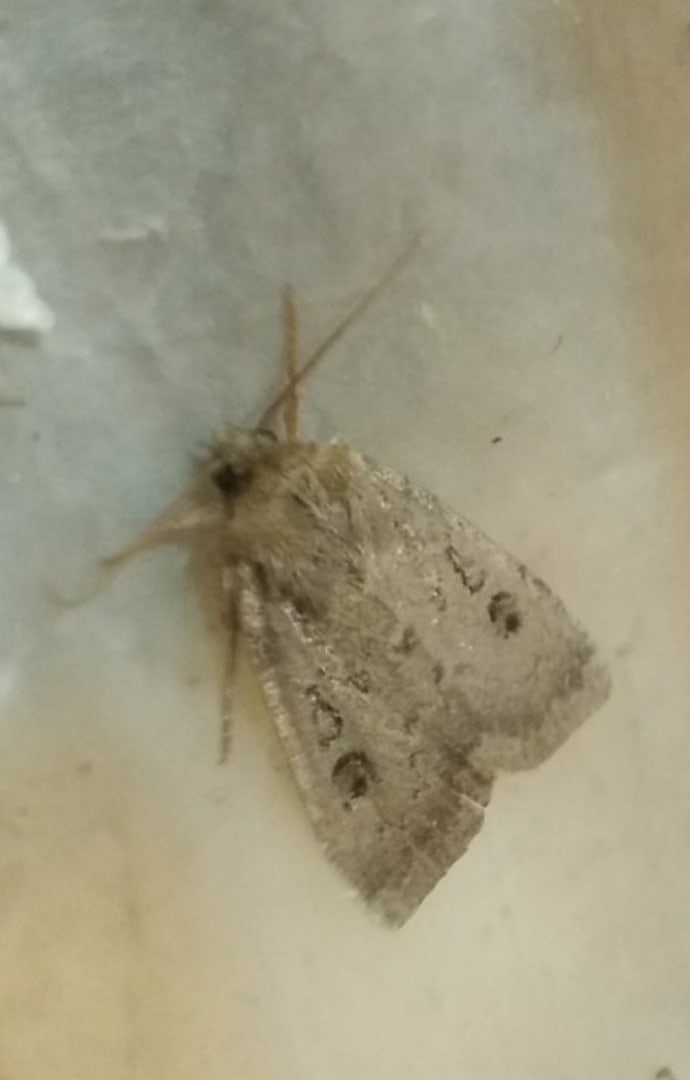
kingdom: Animalia
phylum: Arthropoda
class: Insecta
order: Lepidoptera
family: Noctuidae
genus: Graphiphora
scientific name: Graphiphora augur
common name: Double dart
